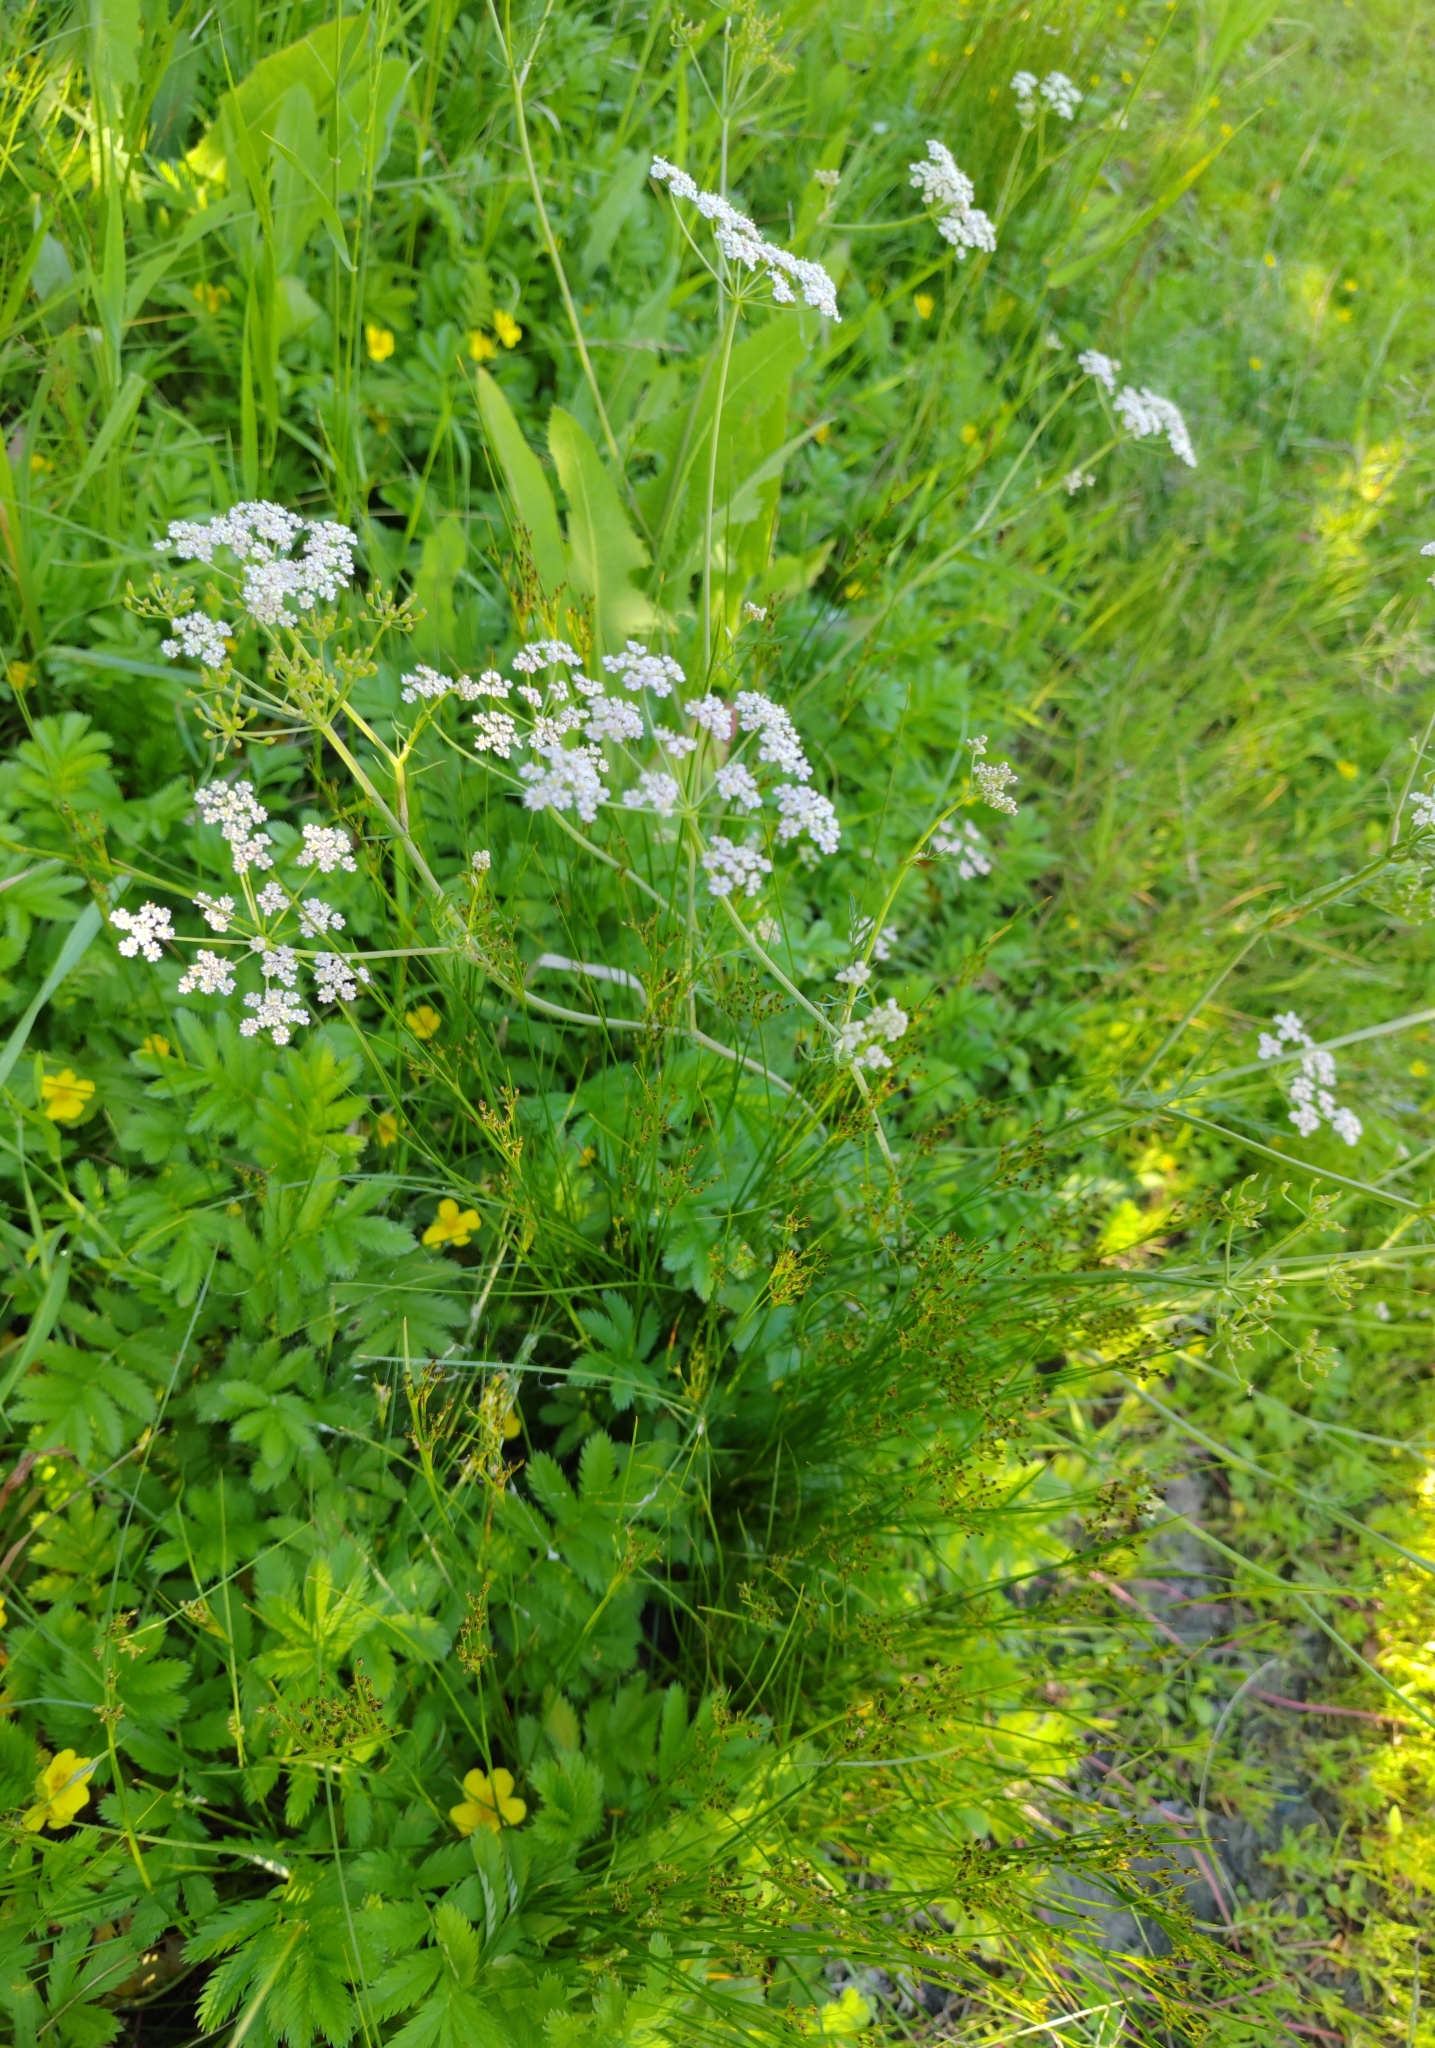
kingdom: Plantae
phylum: Tracheophyta
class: Magnoliopsida
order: Apiales
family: Apiaceae
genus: Carum
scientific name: Carum carvi
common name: Caraway
